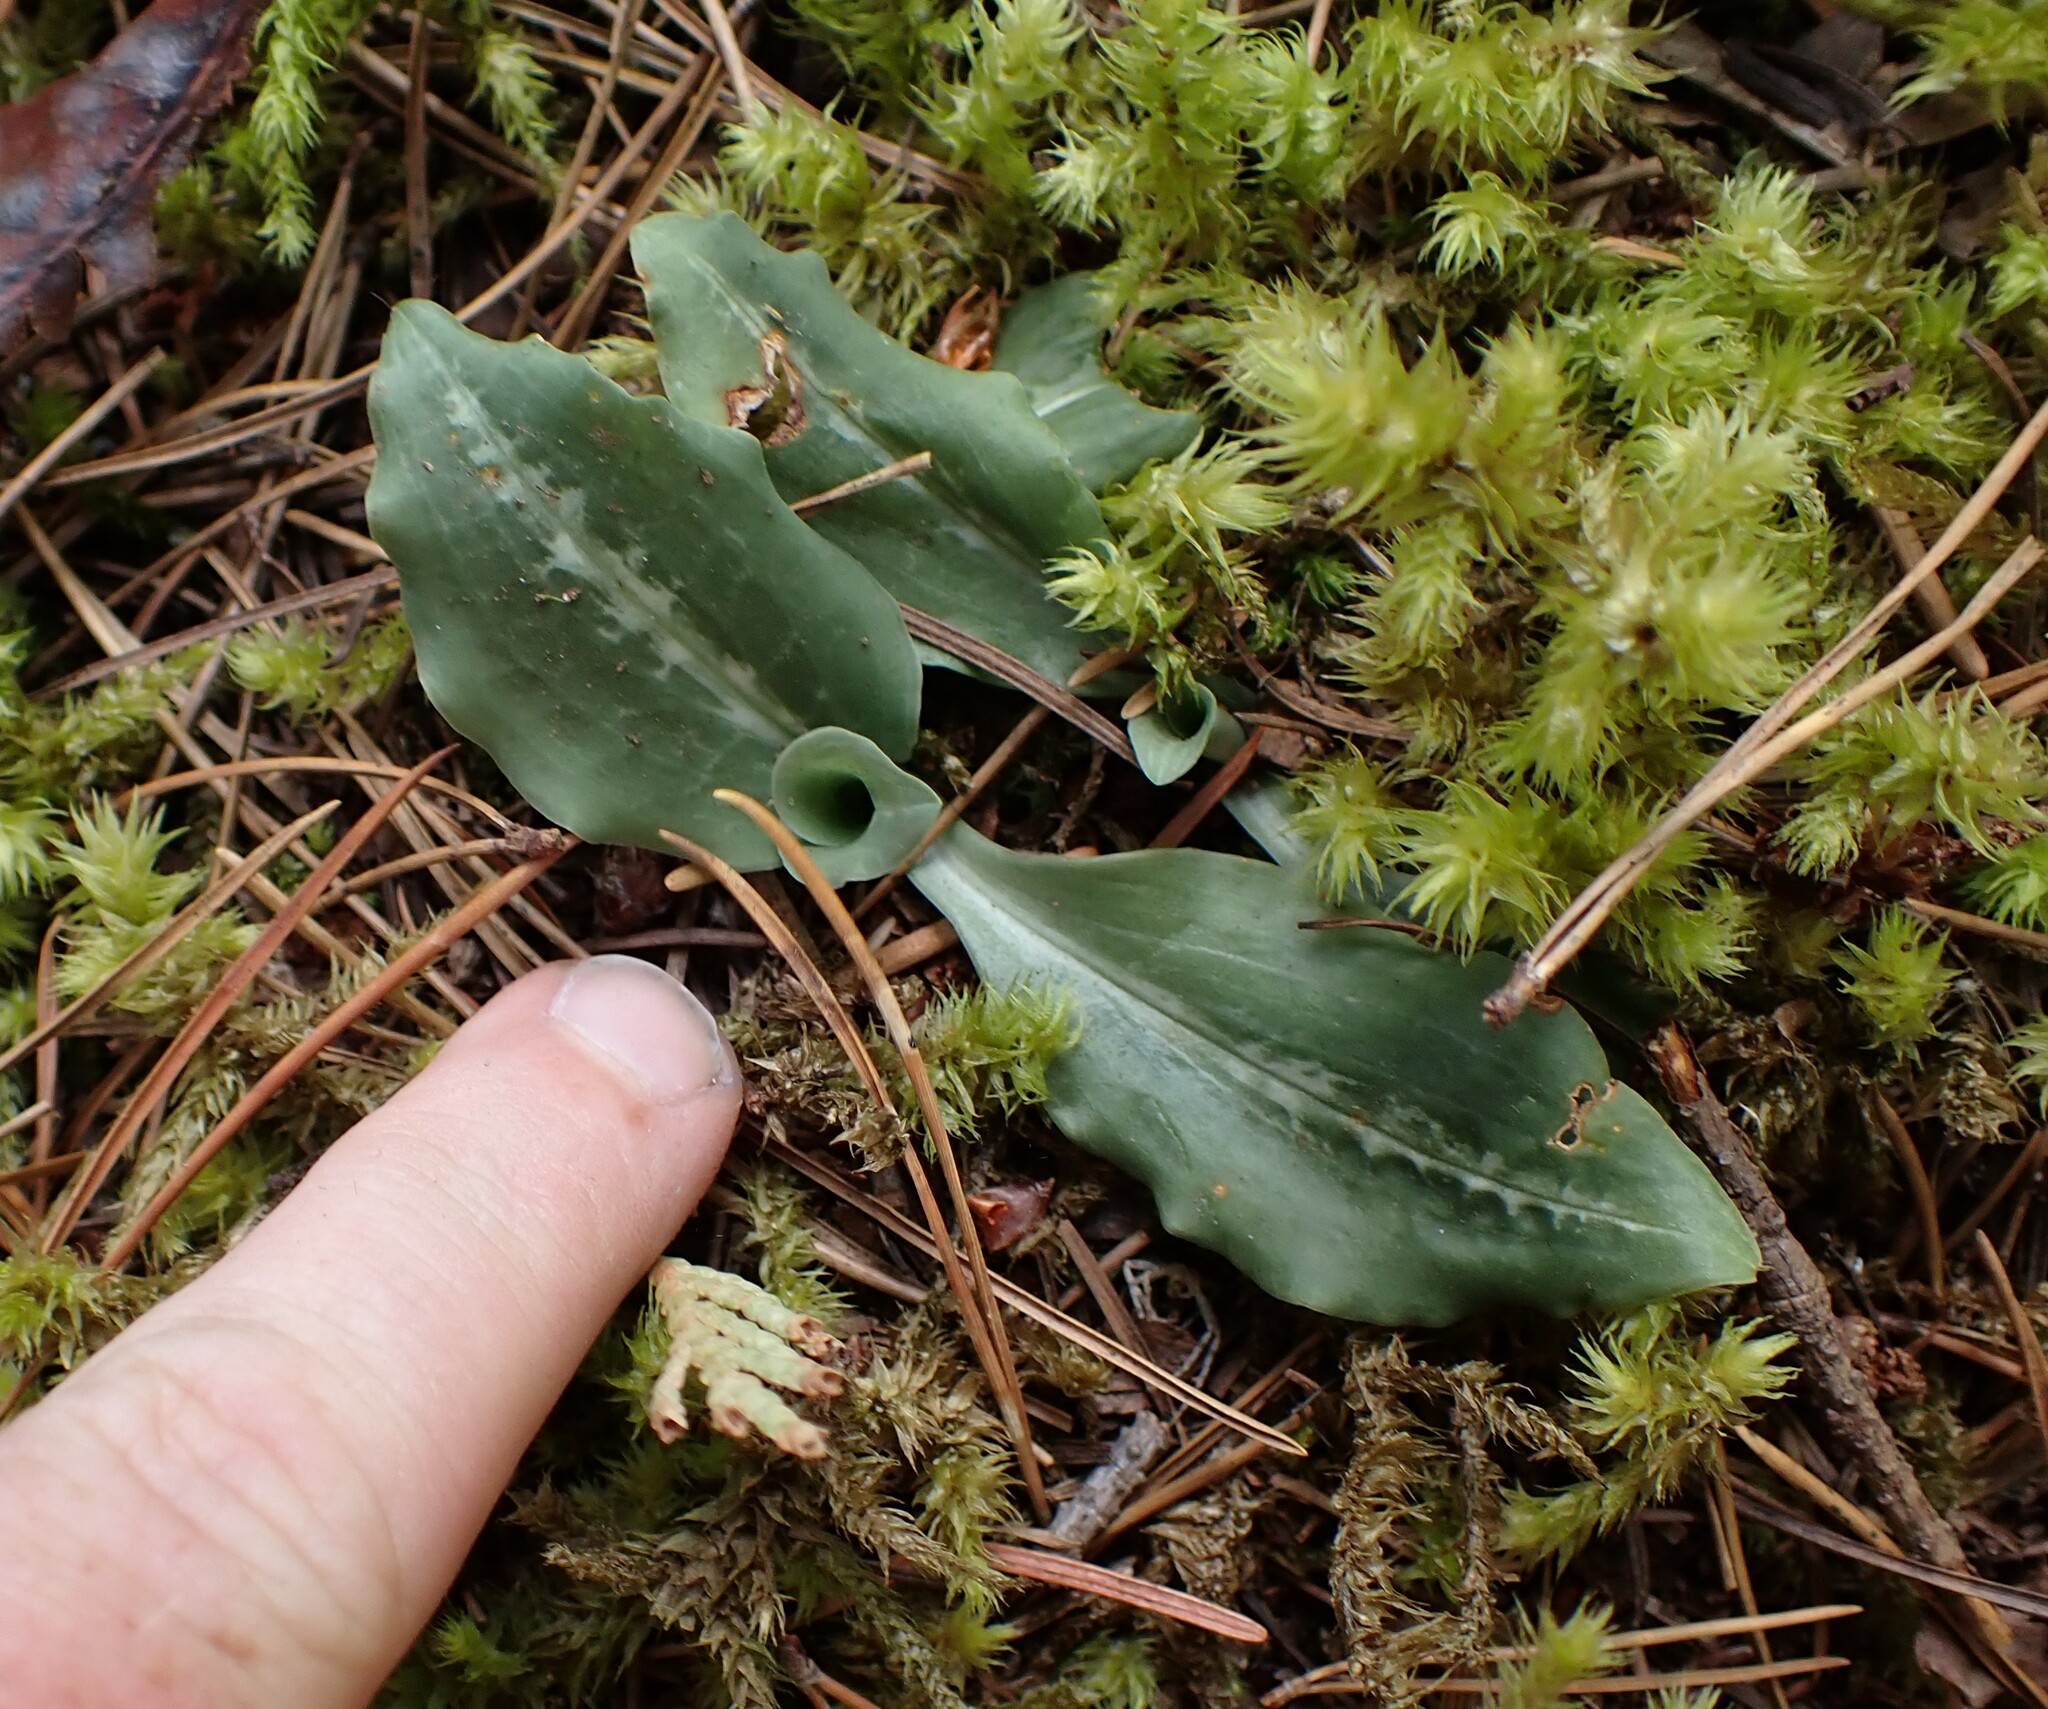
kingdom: Plantae
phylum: Tracheophyta
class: Liliopsida
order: Asparagales
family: Orchidaceae
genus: Goodyera
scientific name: Goodyera oblongifolia
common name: Giant rattlesnake-plantain
